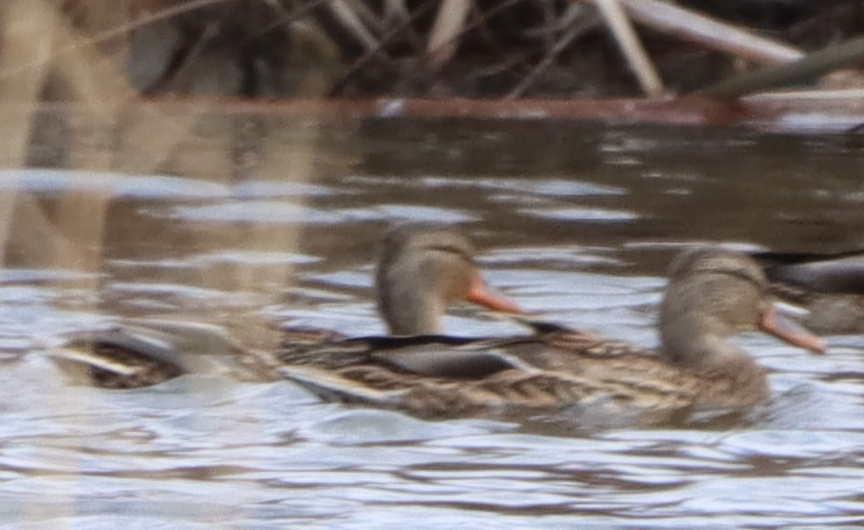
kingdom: Animalia
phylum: Chordata
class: Aves
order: Anseriformes
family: Anatidae
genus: Anas
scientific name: Anas platyrhynchos
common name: Mallard
